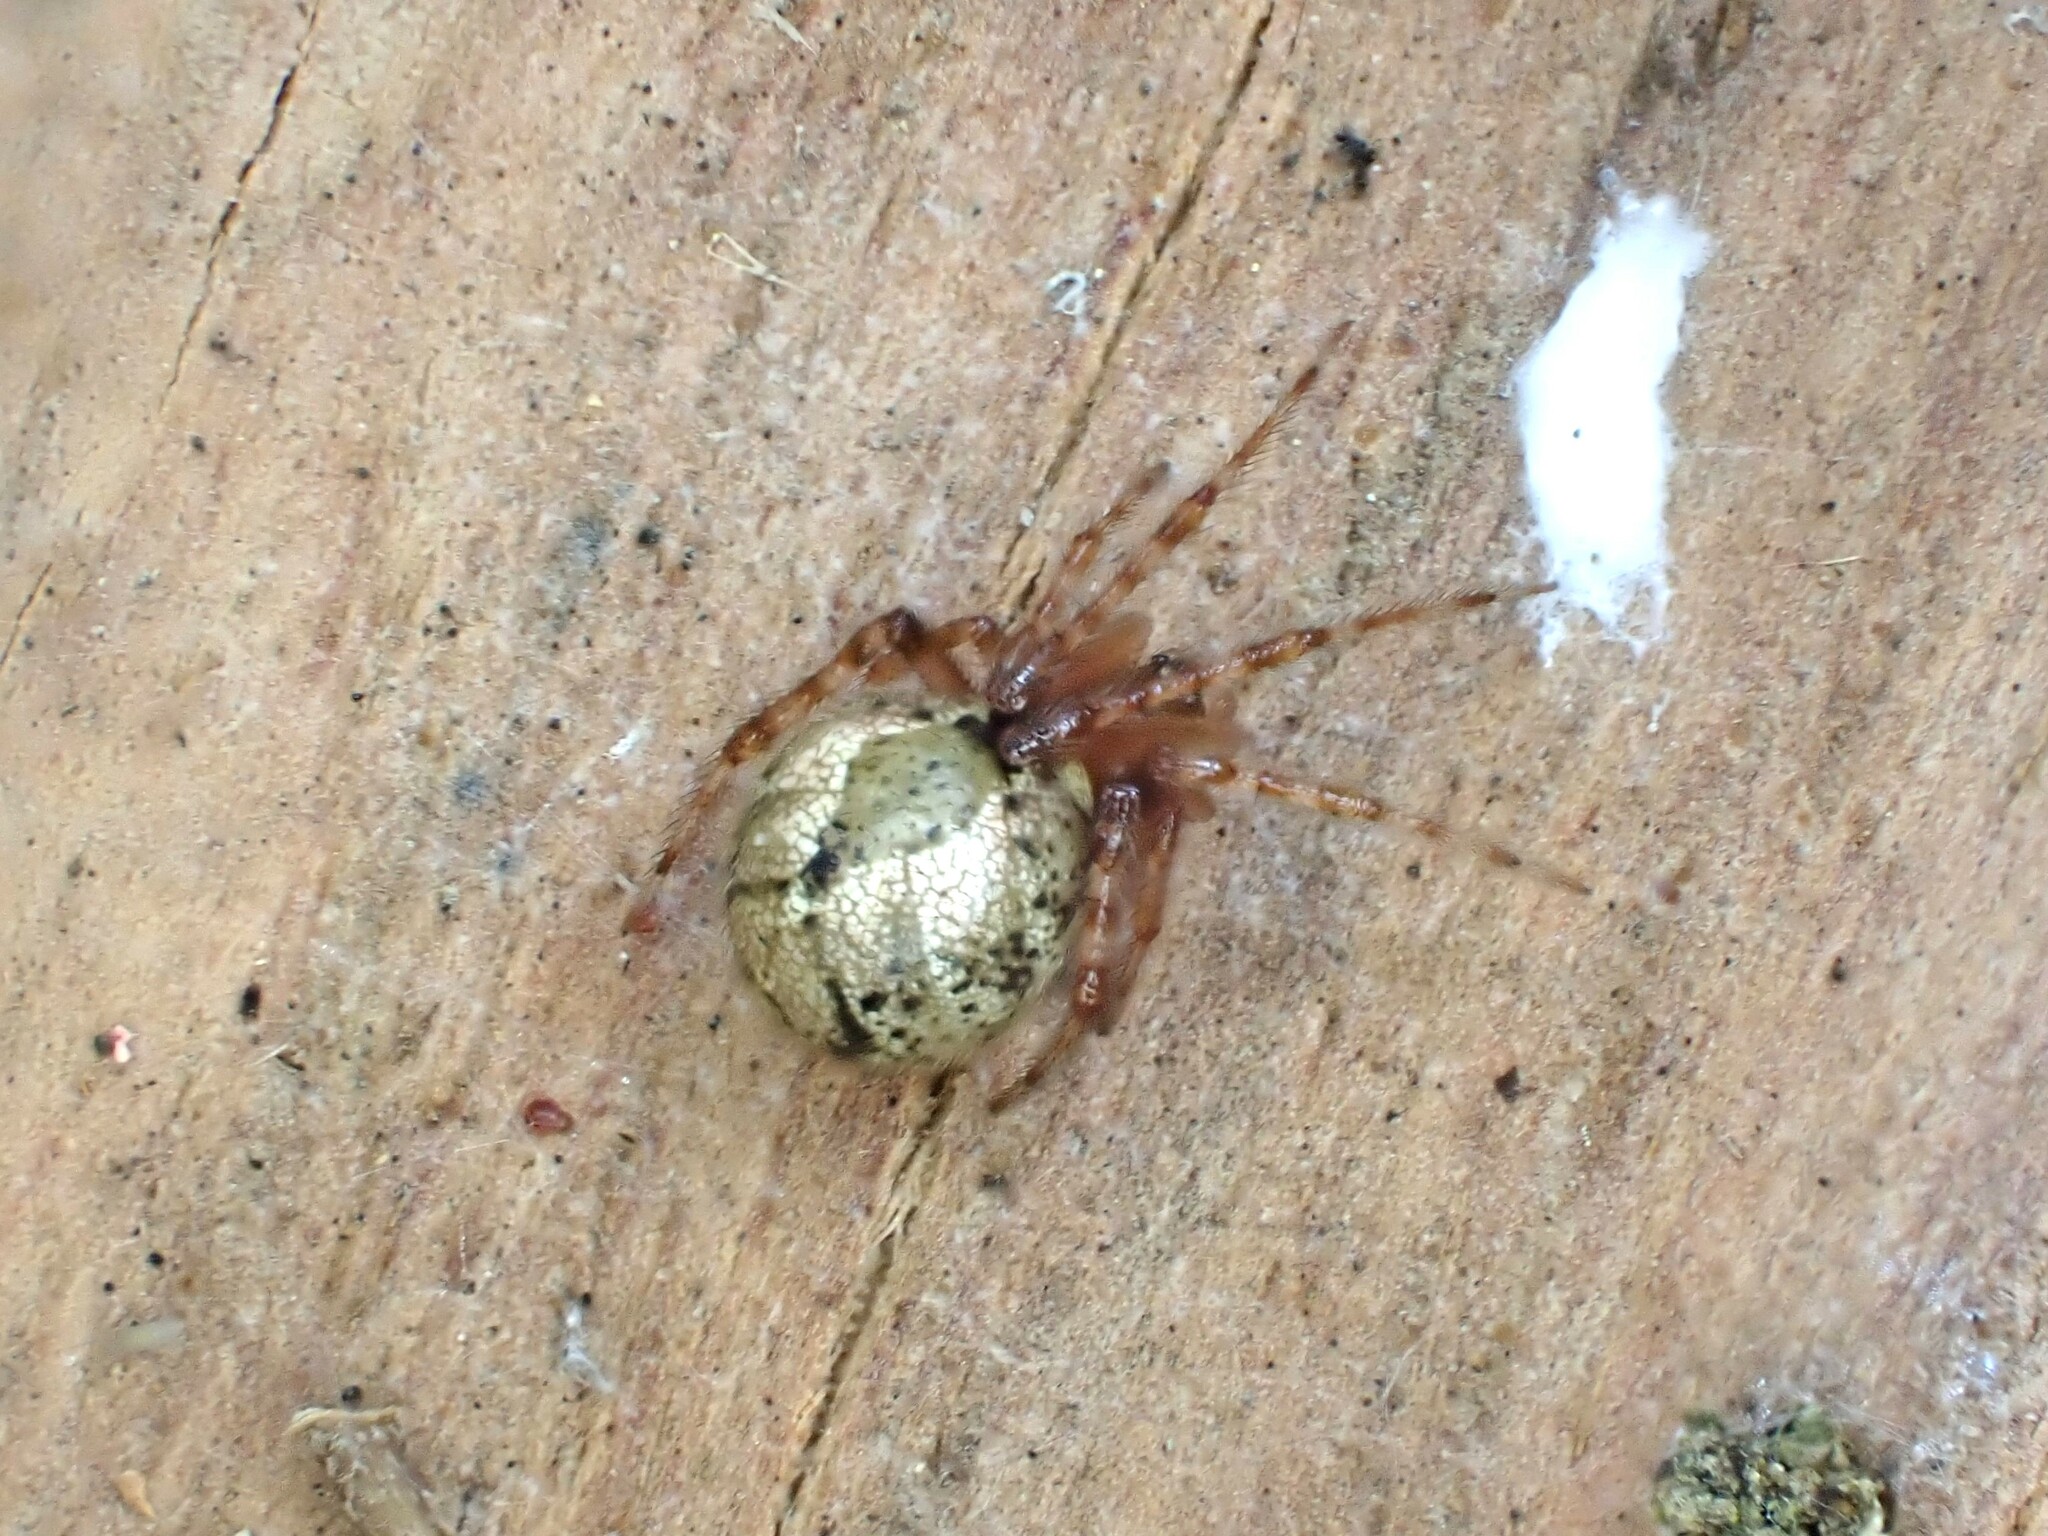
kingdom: Animalia
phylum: Arthropoda
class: Arachnida
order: Araneae
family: Theridiidae
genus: Cryptachaea
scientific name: Cryptachaea veruculata
